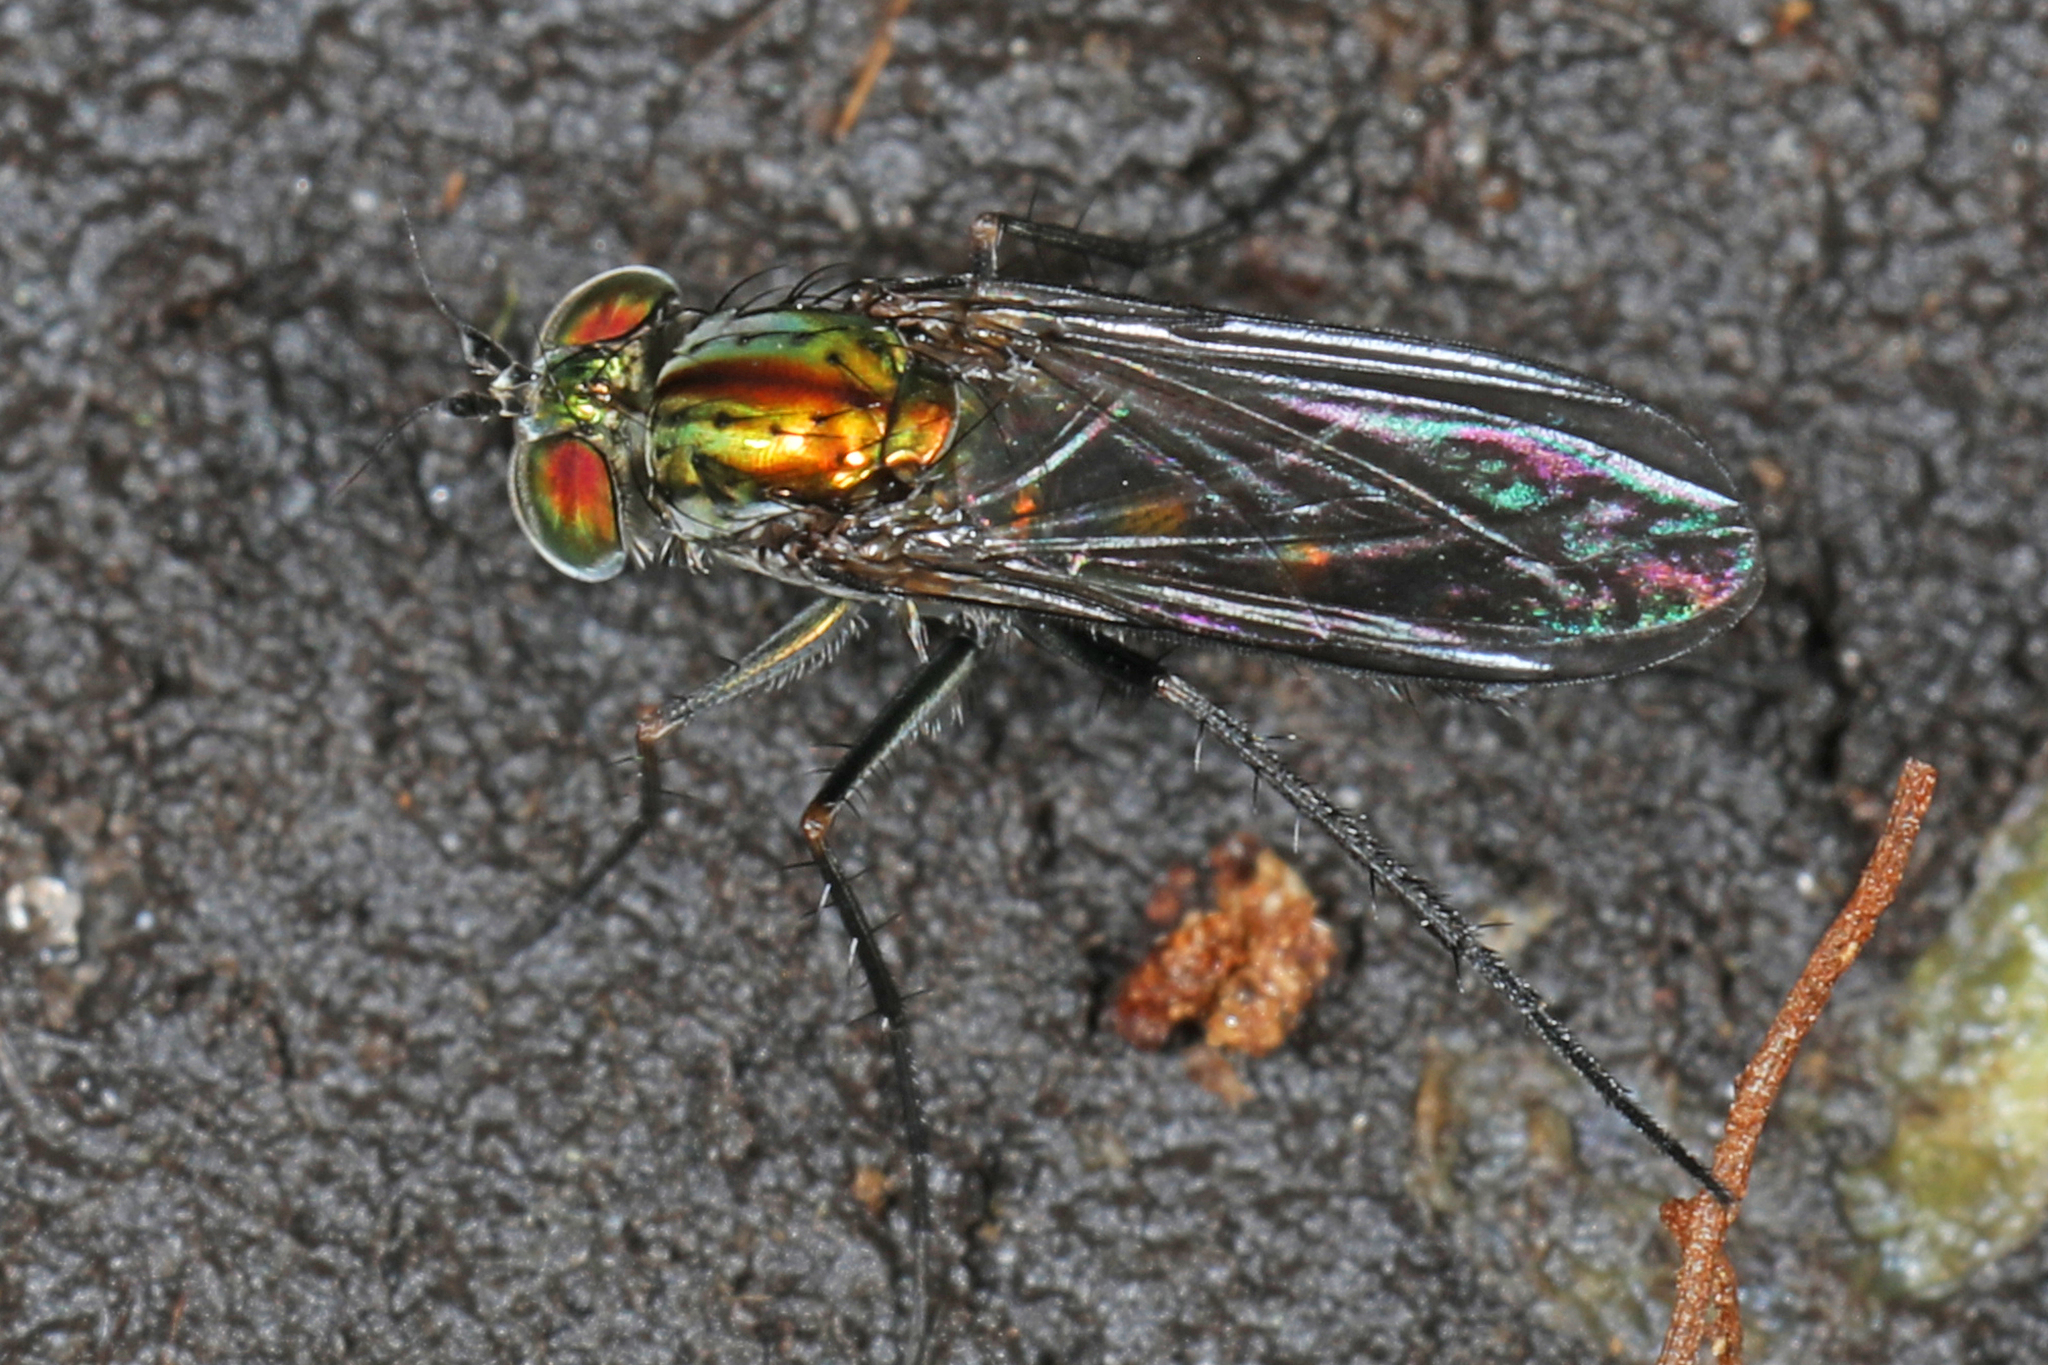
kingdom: Animalia
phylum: Arthropoda
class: Insecta
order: Diptera
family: Dolichopodidae
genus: Plagioneurus
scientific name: Plagioneurus univittatus
